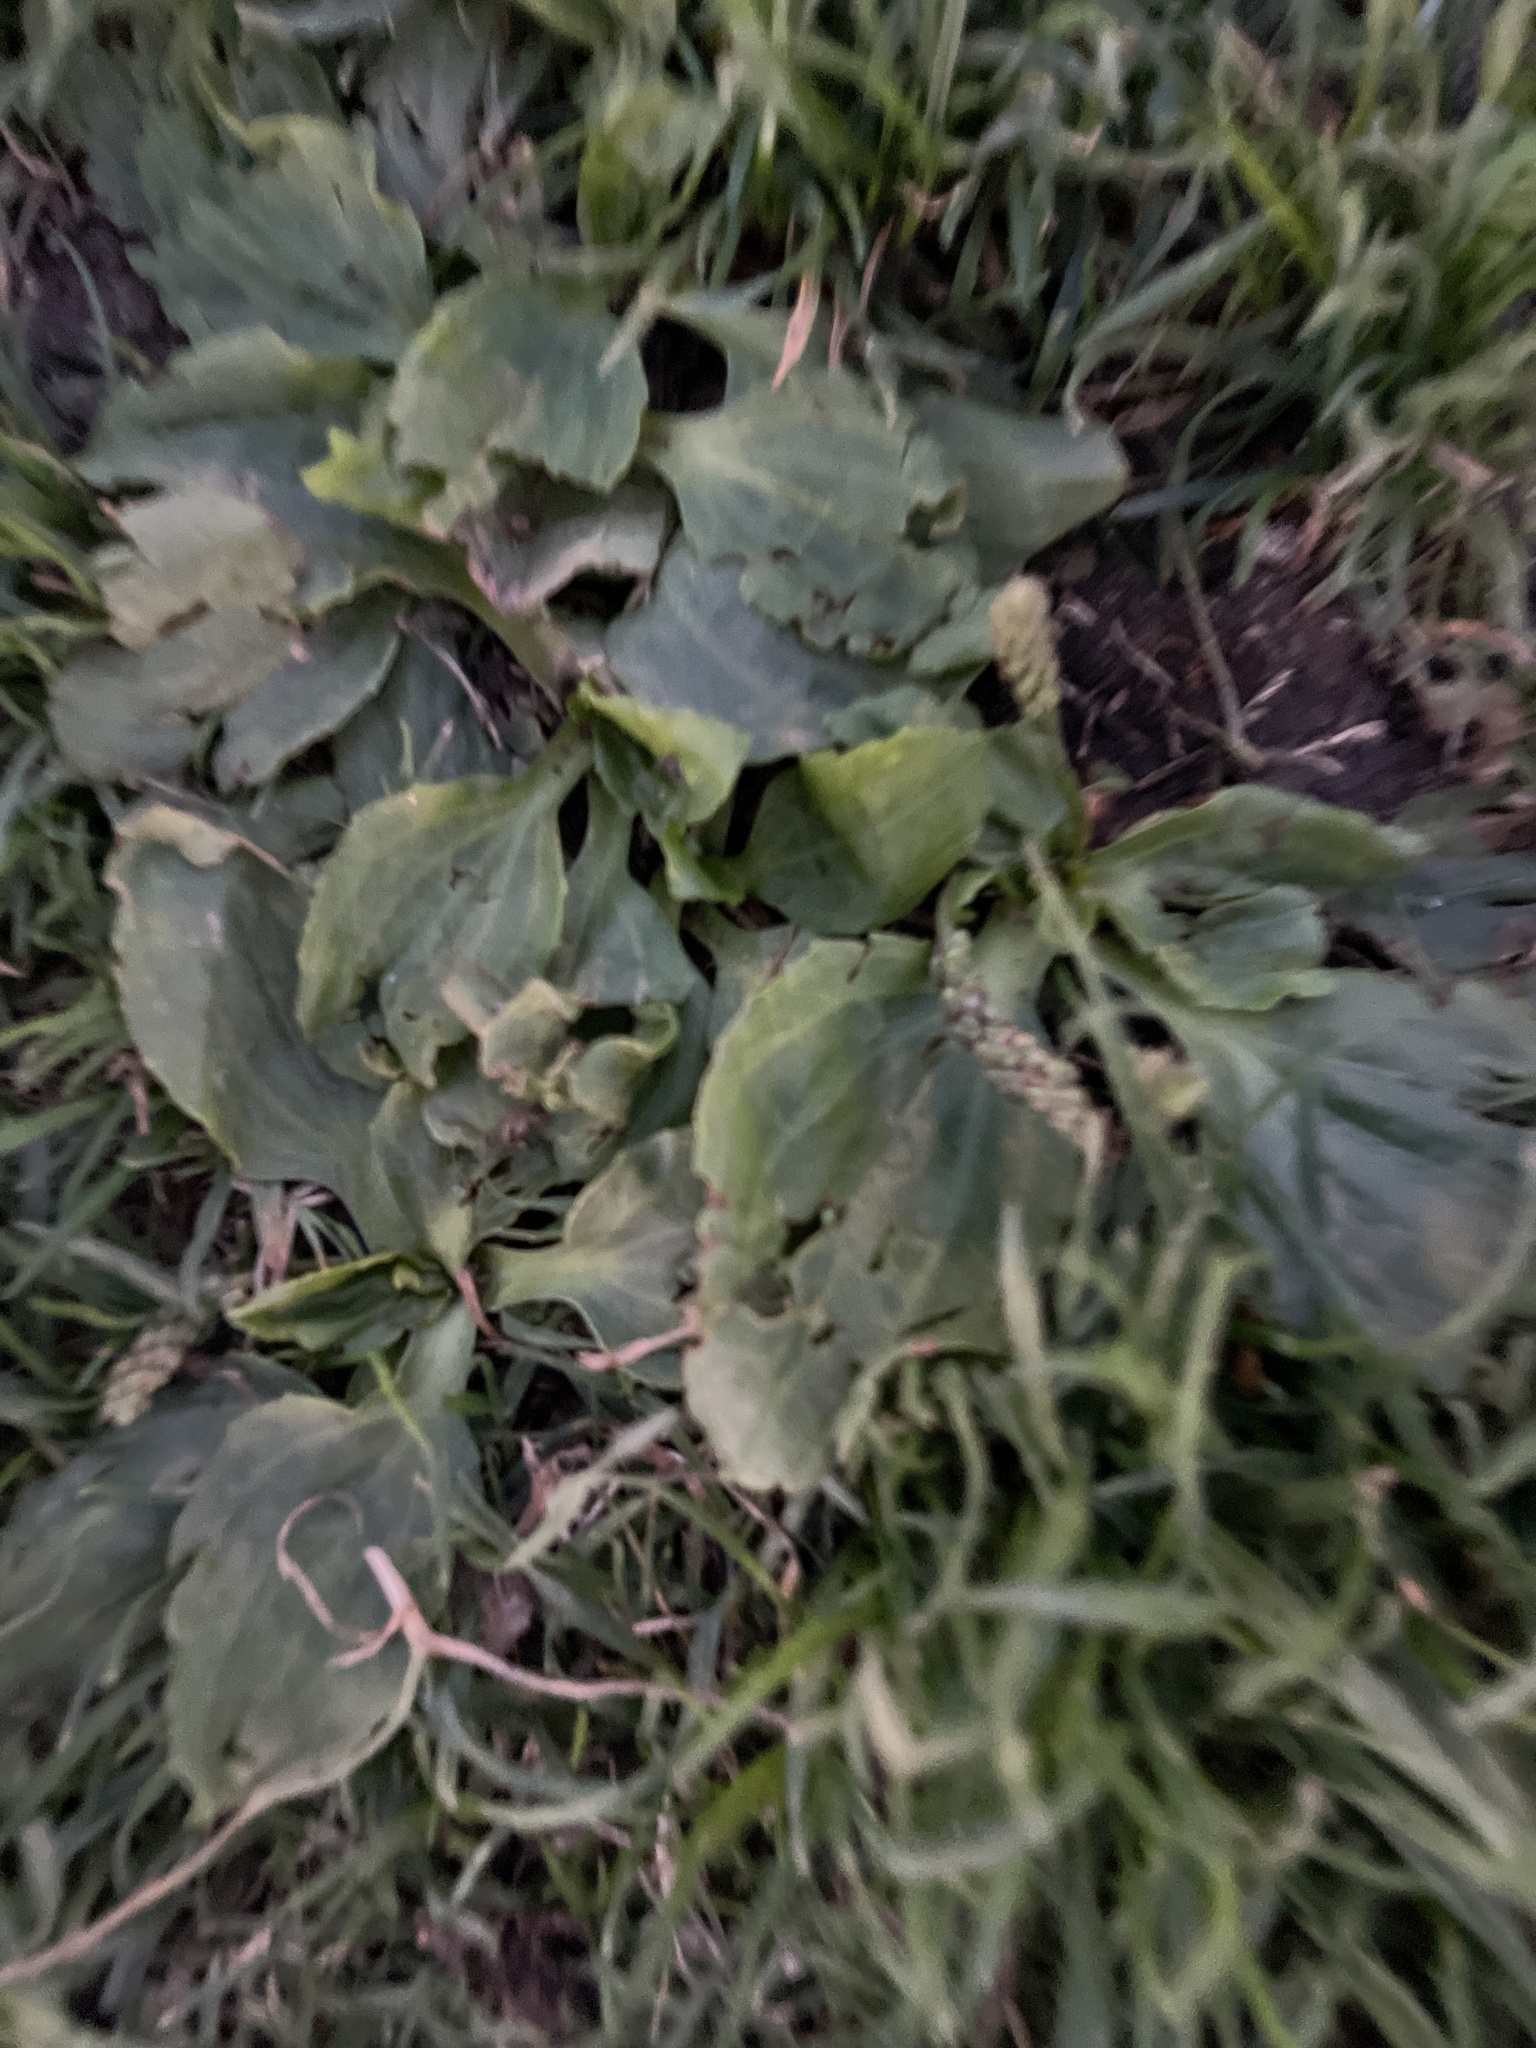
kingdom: Plantae
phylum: Tracheophyta
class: Magnoliopsida
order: Lamiales
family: Plantaginaceae
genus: Plantago
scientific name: Plantago major
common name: Common plantain
